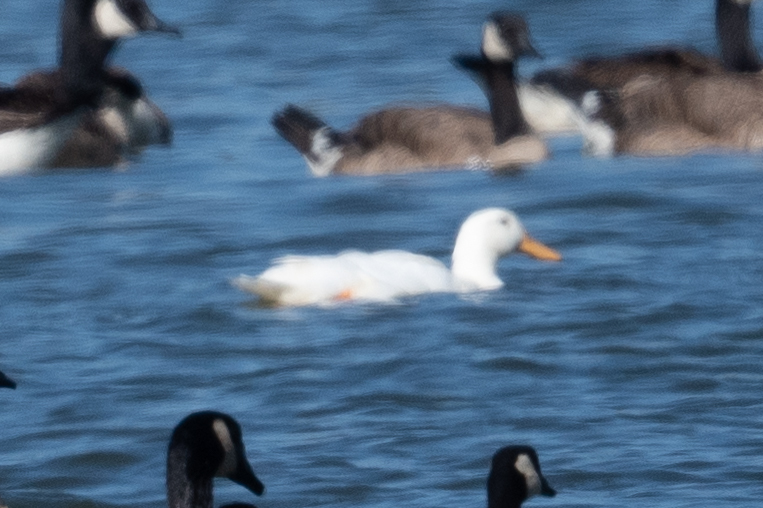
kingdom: Animalia
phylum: Chordata
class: Aves
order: Anseriformes
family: Anatidae
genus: Anas
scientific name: Anas platyrhynchos
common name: Mallard
